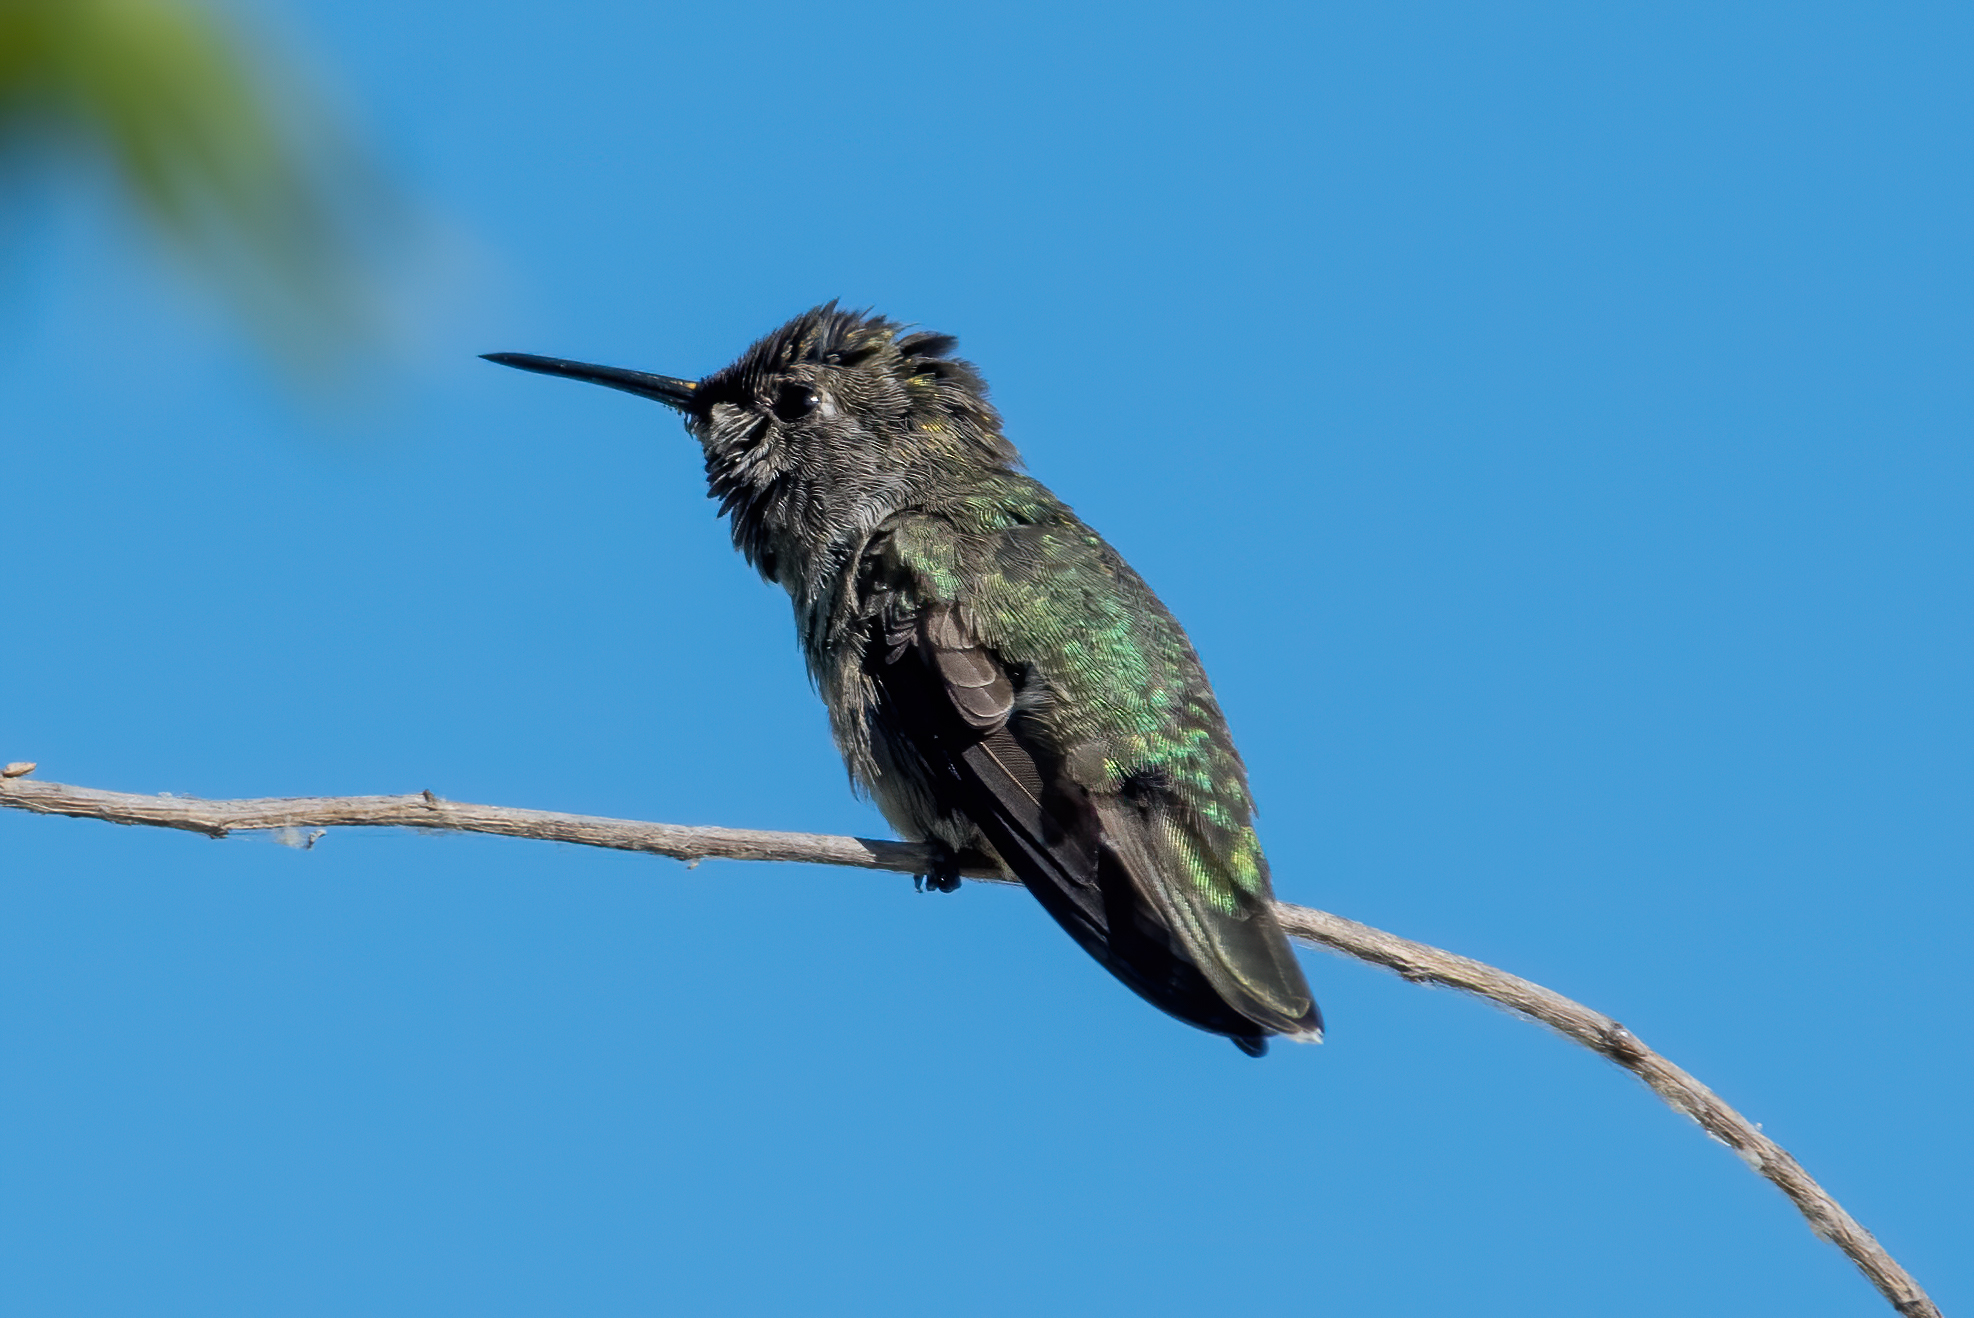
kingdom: Animalia
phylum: Chordata
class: Aves
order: Apodiformes
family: Trochilidae
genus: Calypte
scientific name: Calypte anna
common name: Anna's hummingbird
